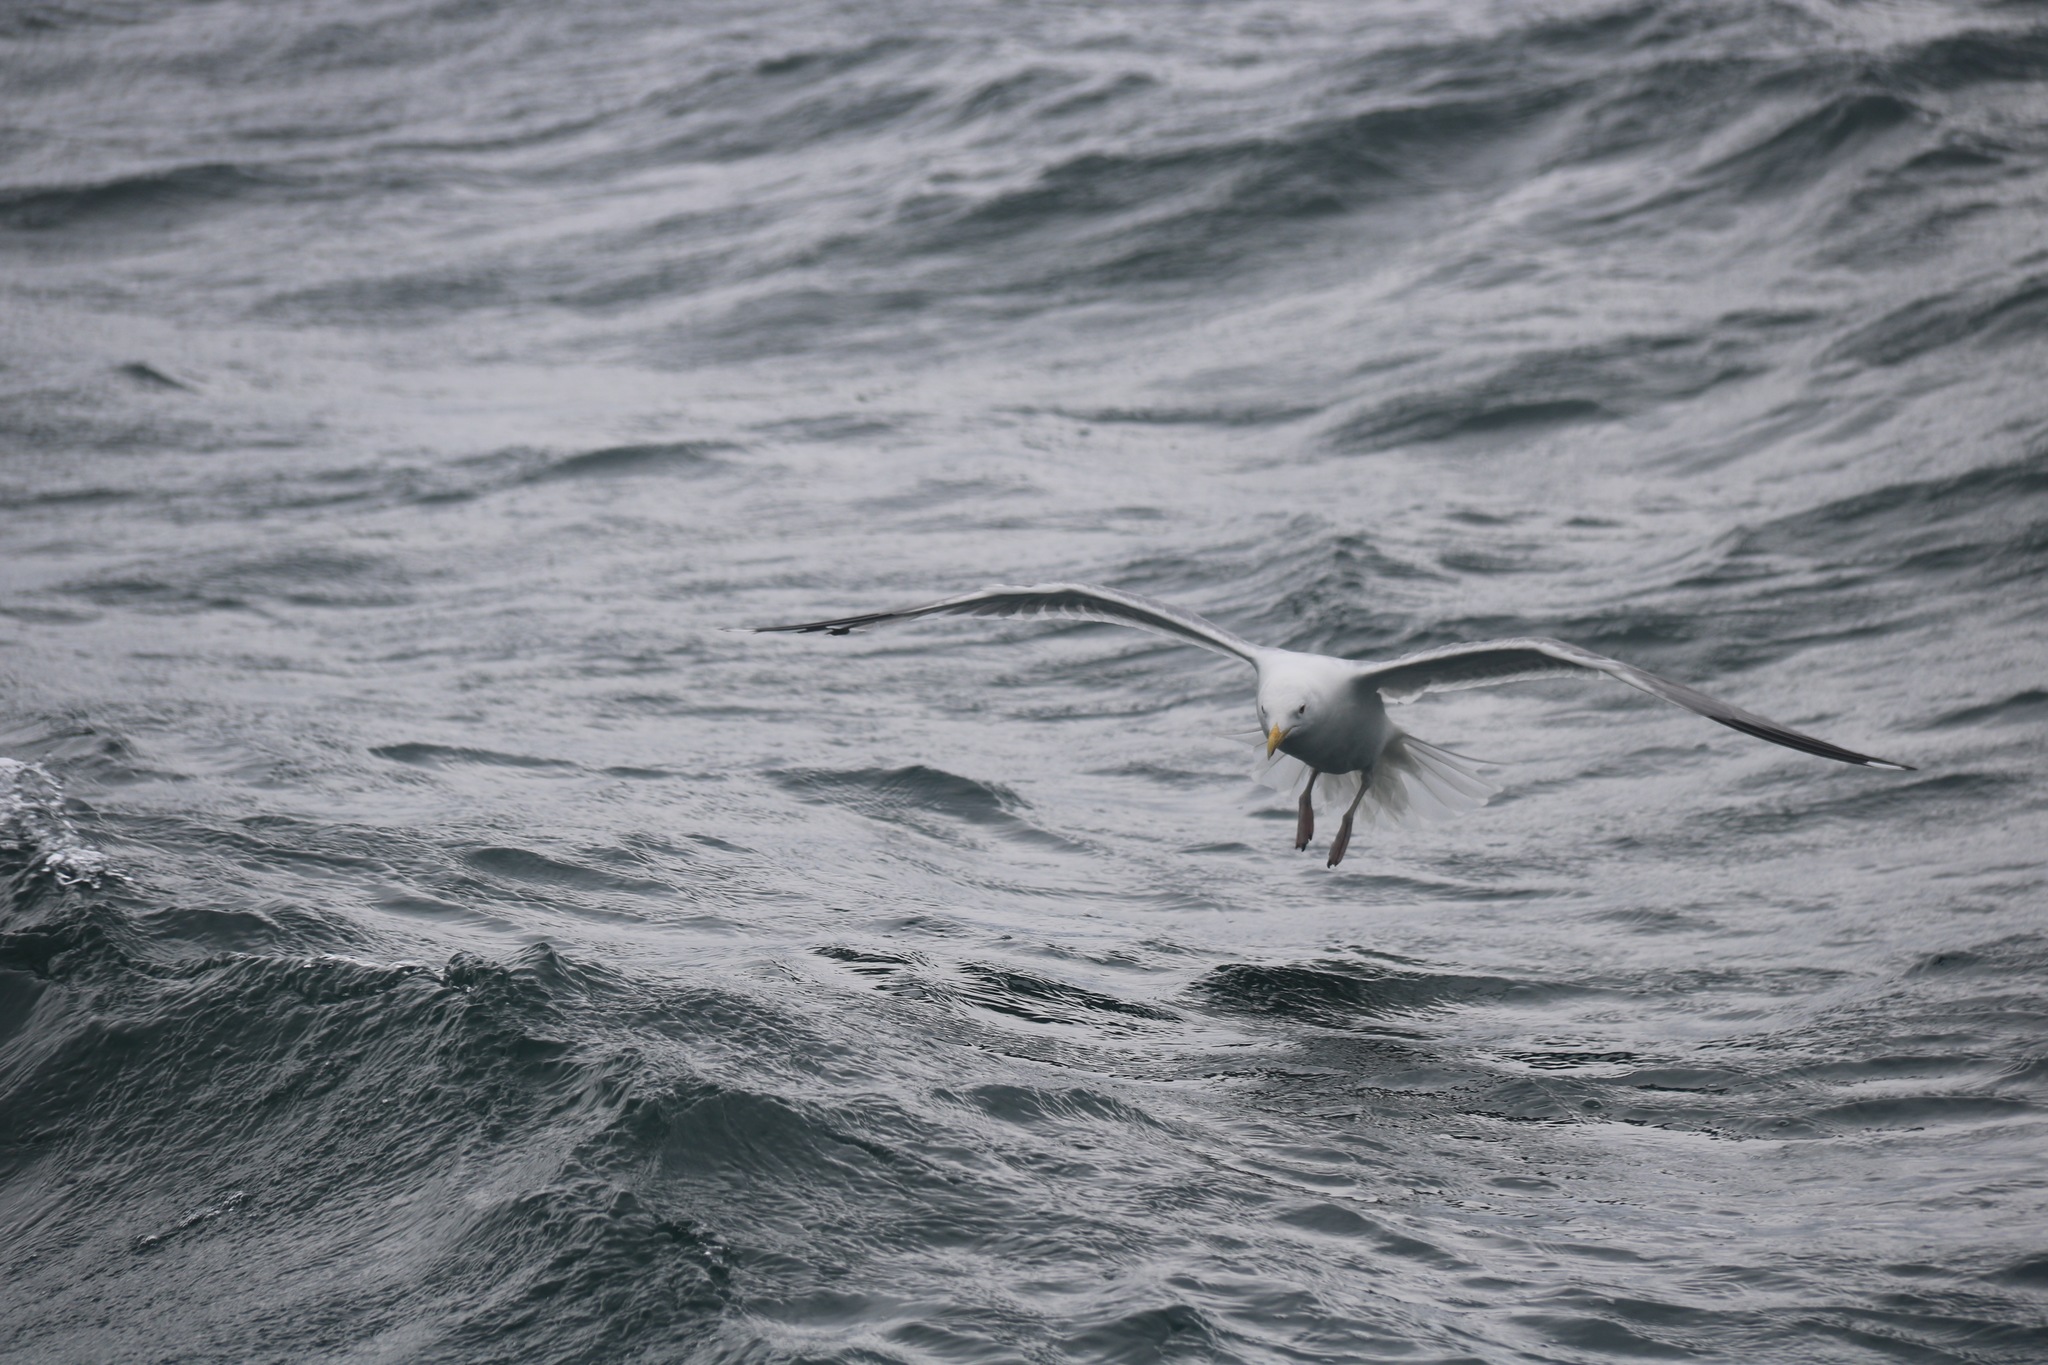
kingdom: Animalia
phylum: Chordata
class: Aves
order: Charadriiformes
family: Laridae
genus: Larus
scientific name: Larus vegae
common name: Vega gull
